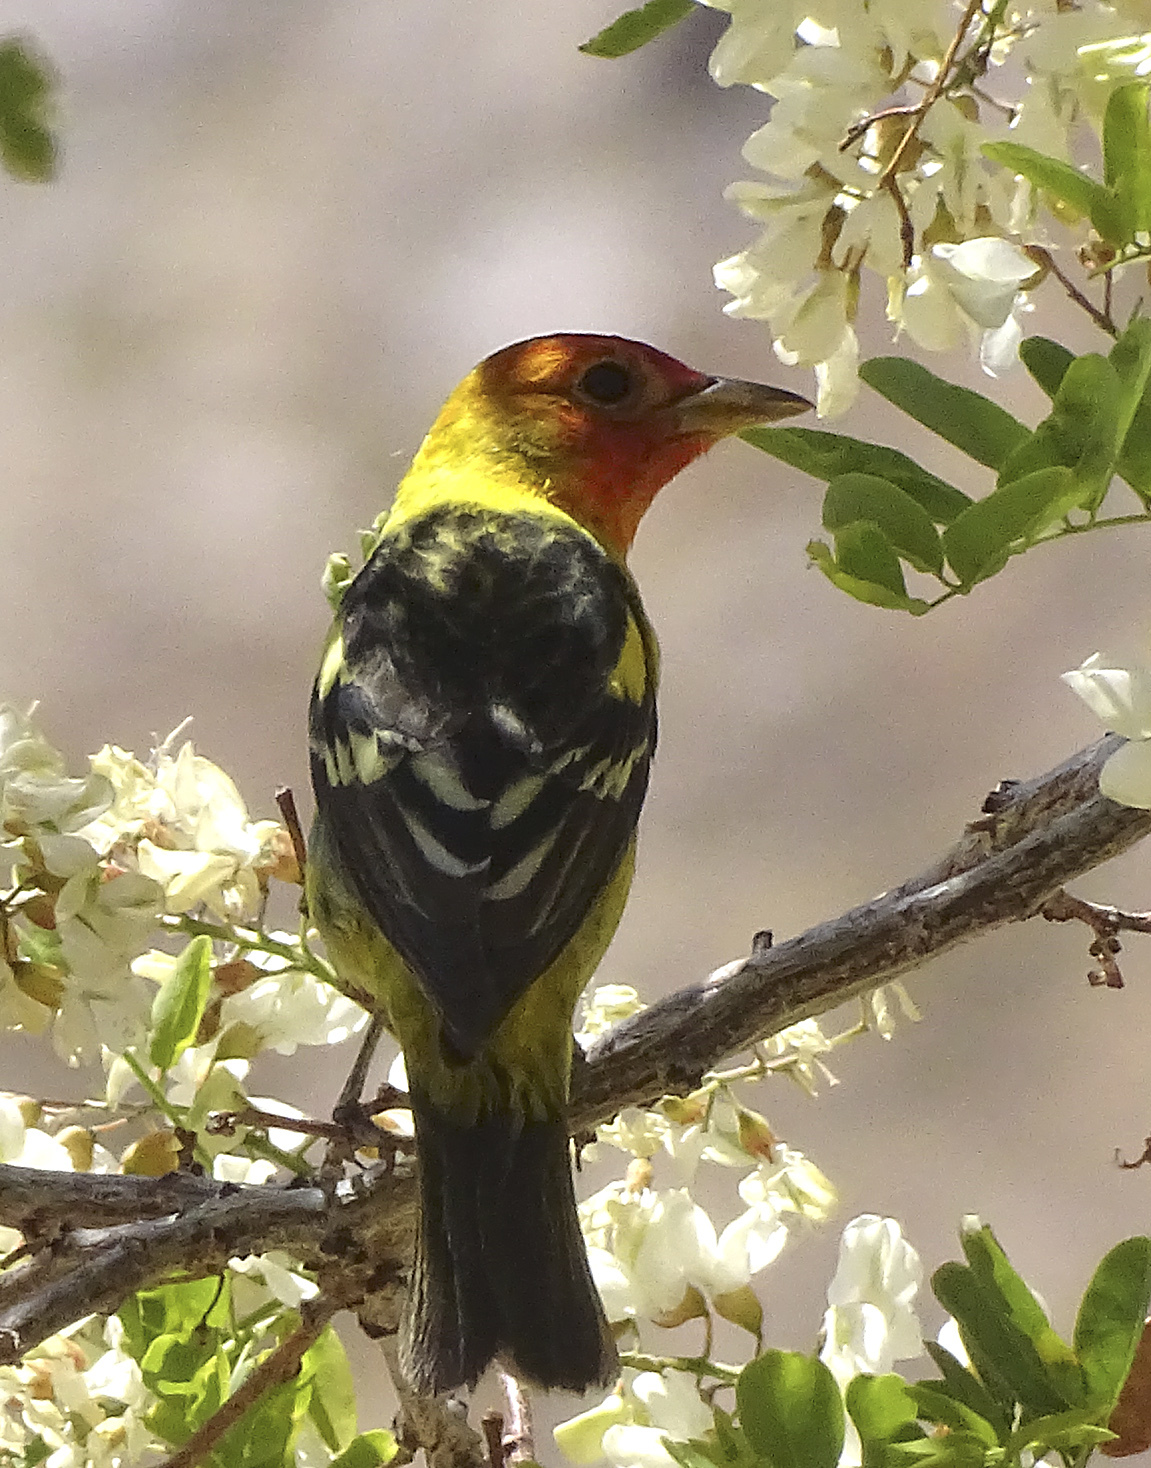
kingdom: Animalia
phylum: Chordata
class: Aves
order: Passeriformes
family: Cardinalidae
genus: Piranga
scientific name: Piranga ludoviciana
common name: Western tanager
